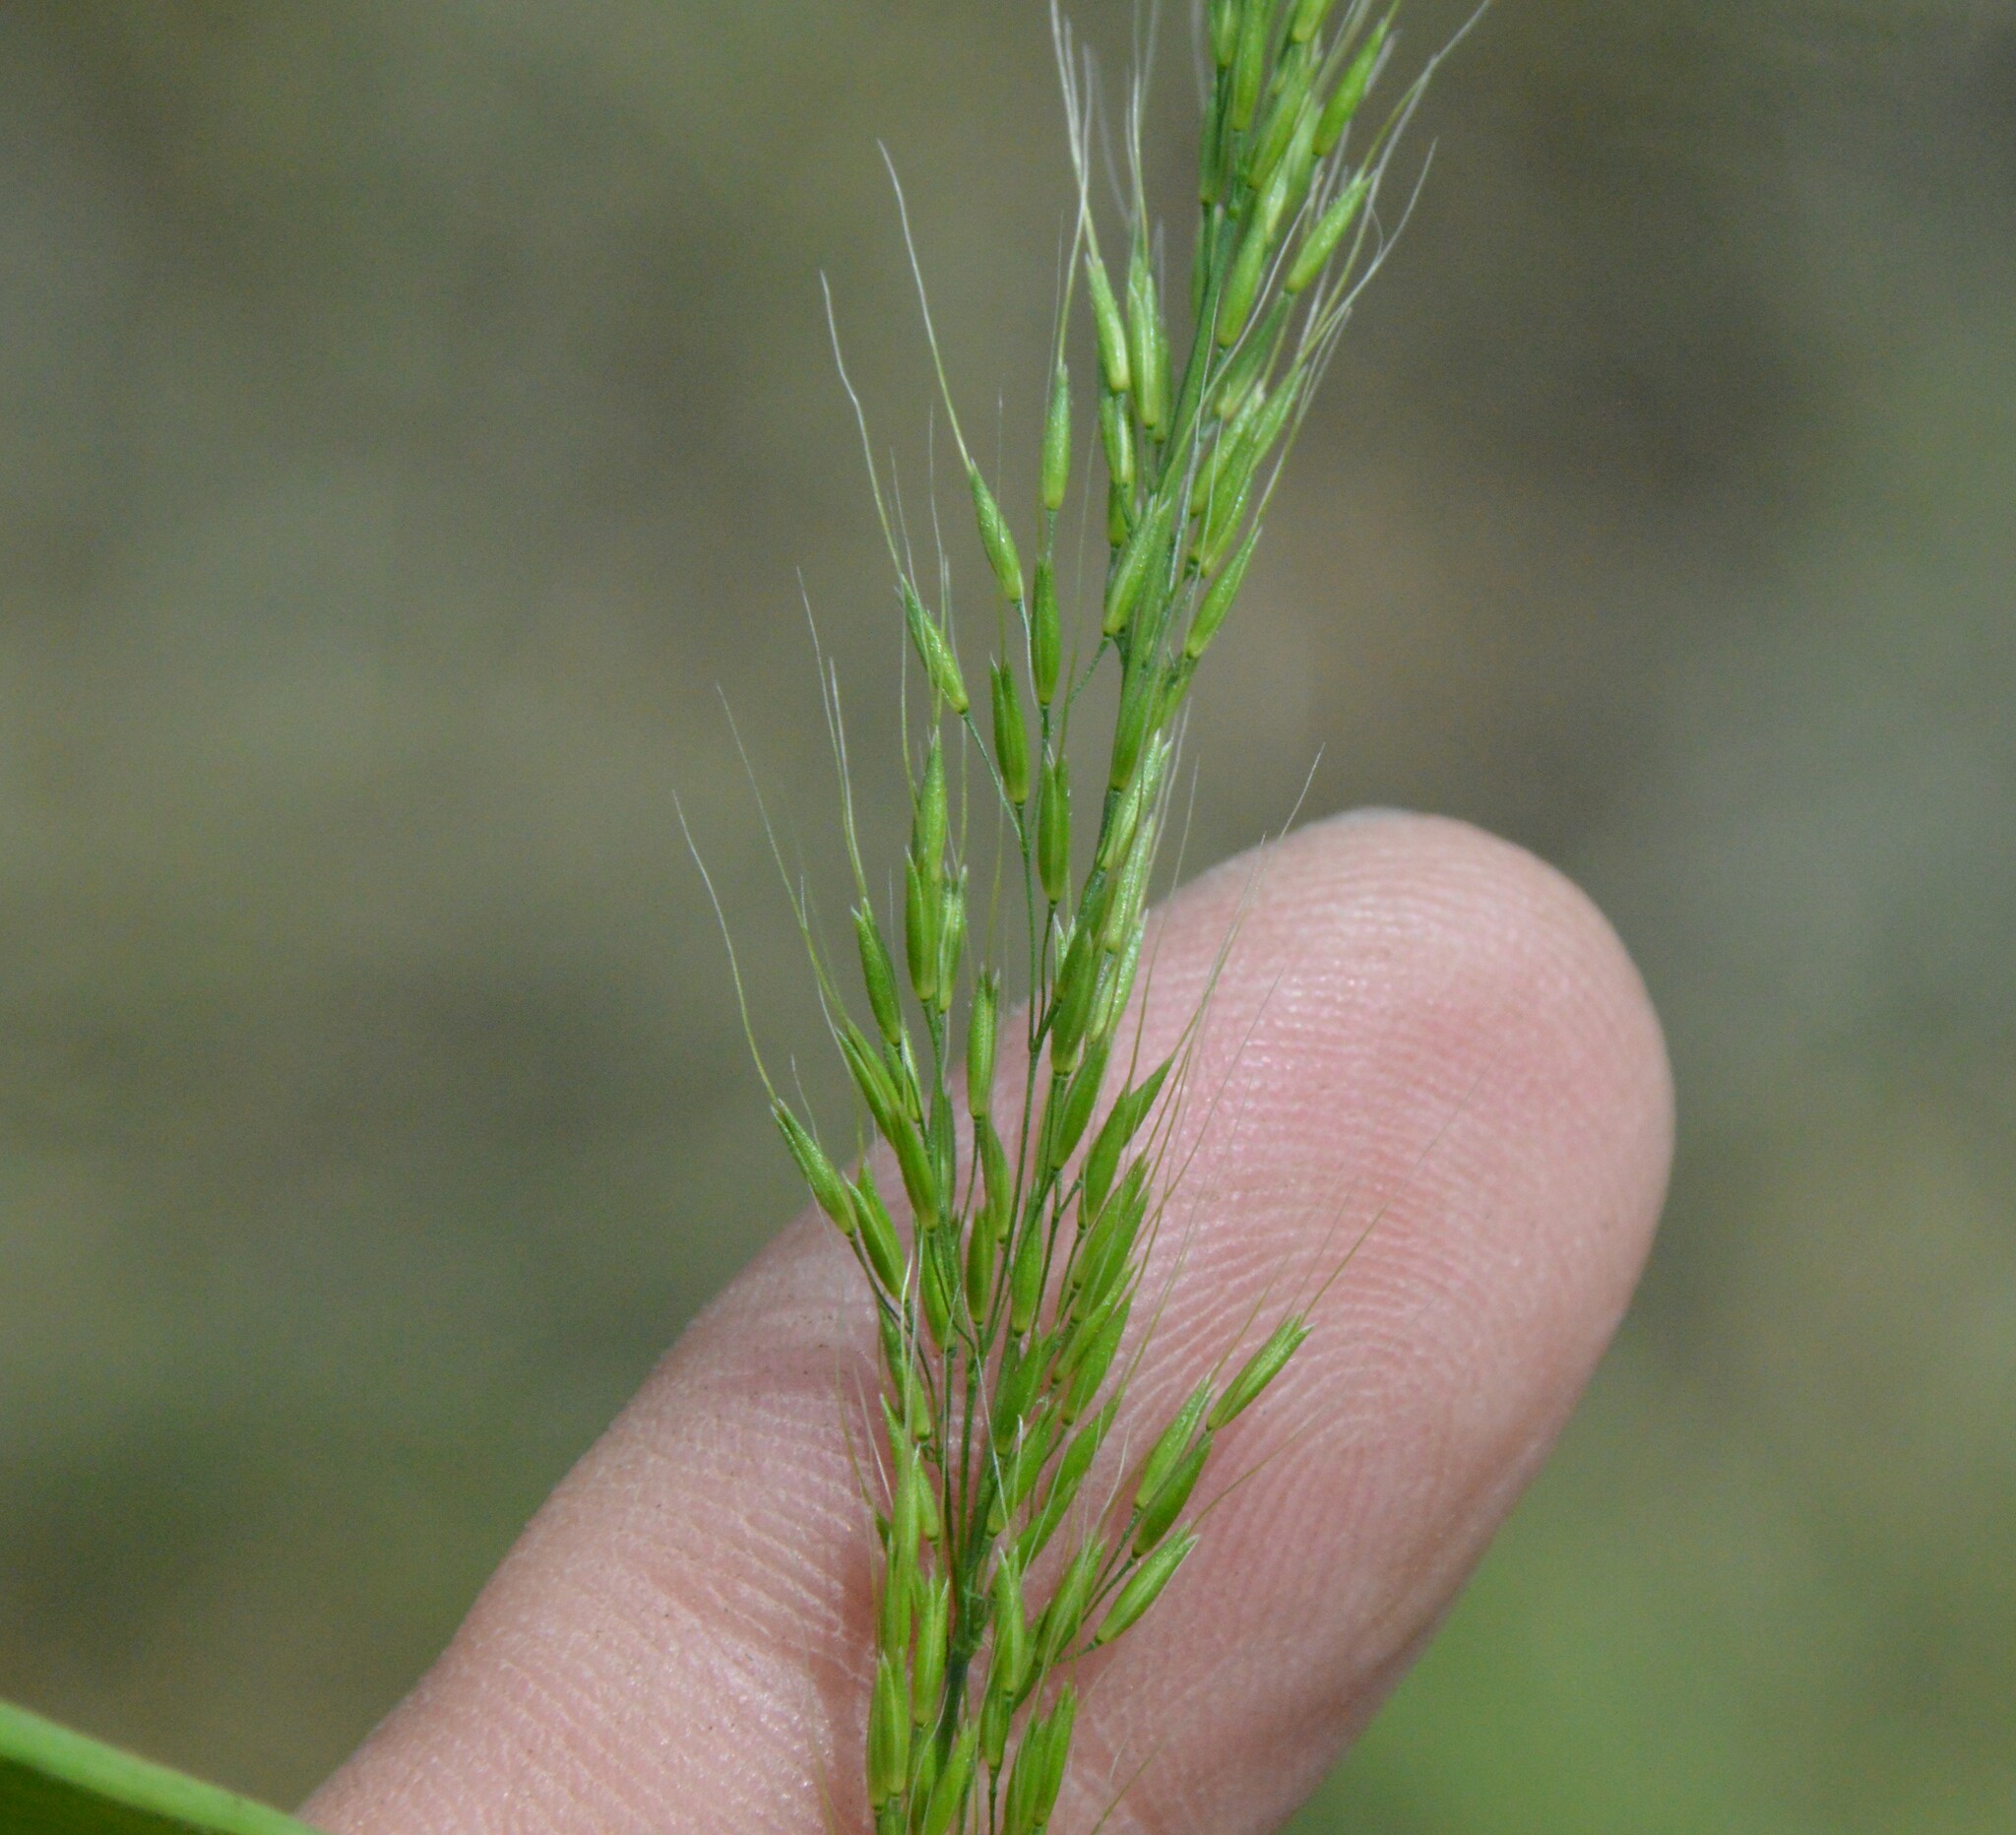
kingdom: Plantae
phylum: Tracheophyta
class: Liliopsida
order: Poales
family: Poaceae
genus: Limnodea
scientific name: Limnodea arkansana
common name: Ozark-grass
